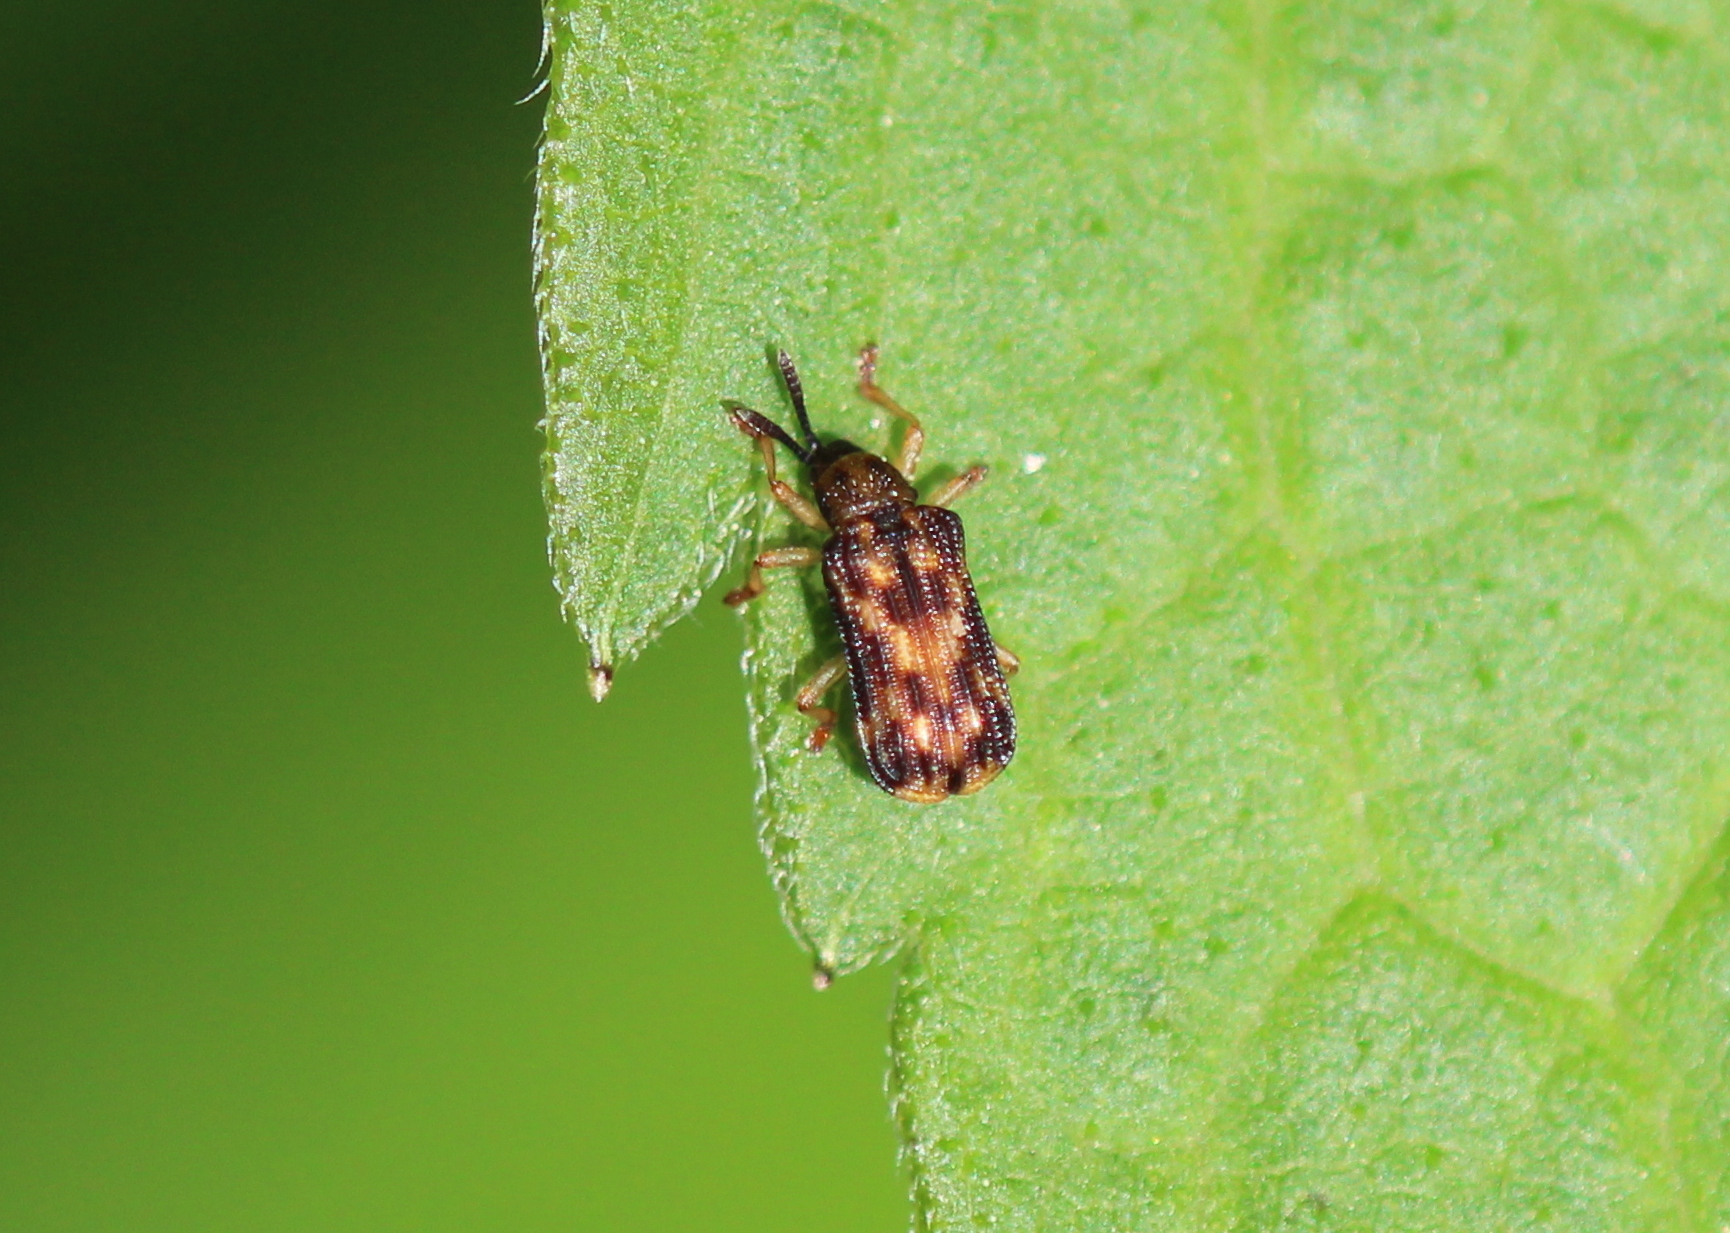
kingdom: Animalia
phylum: Arthropoda
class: Insecta
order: Coleoptera
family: Chrysomelidae
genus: Sumitrosis
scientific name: Sumitrosis inaequalis
